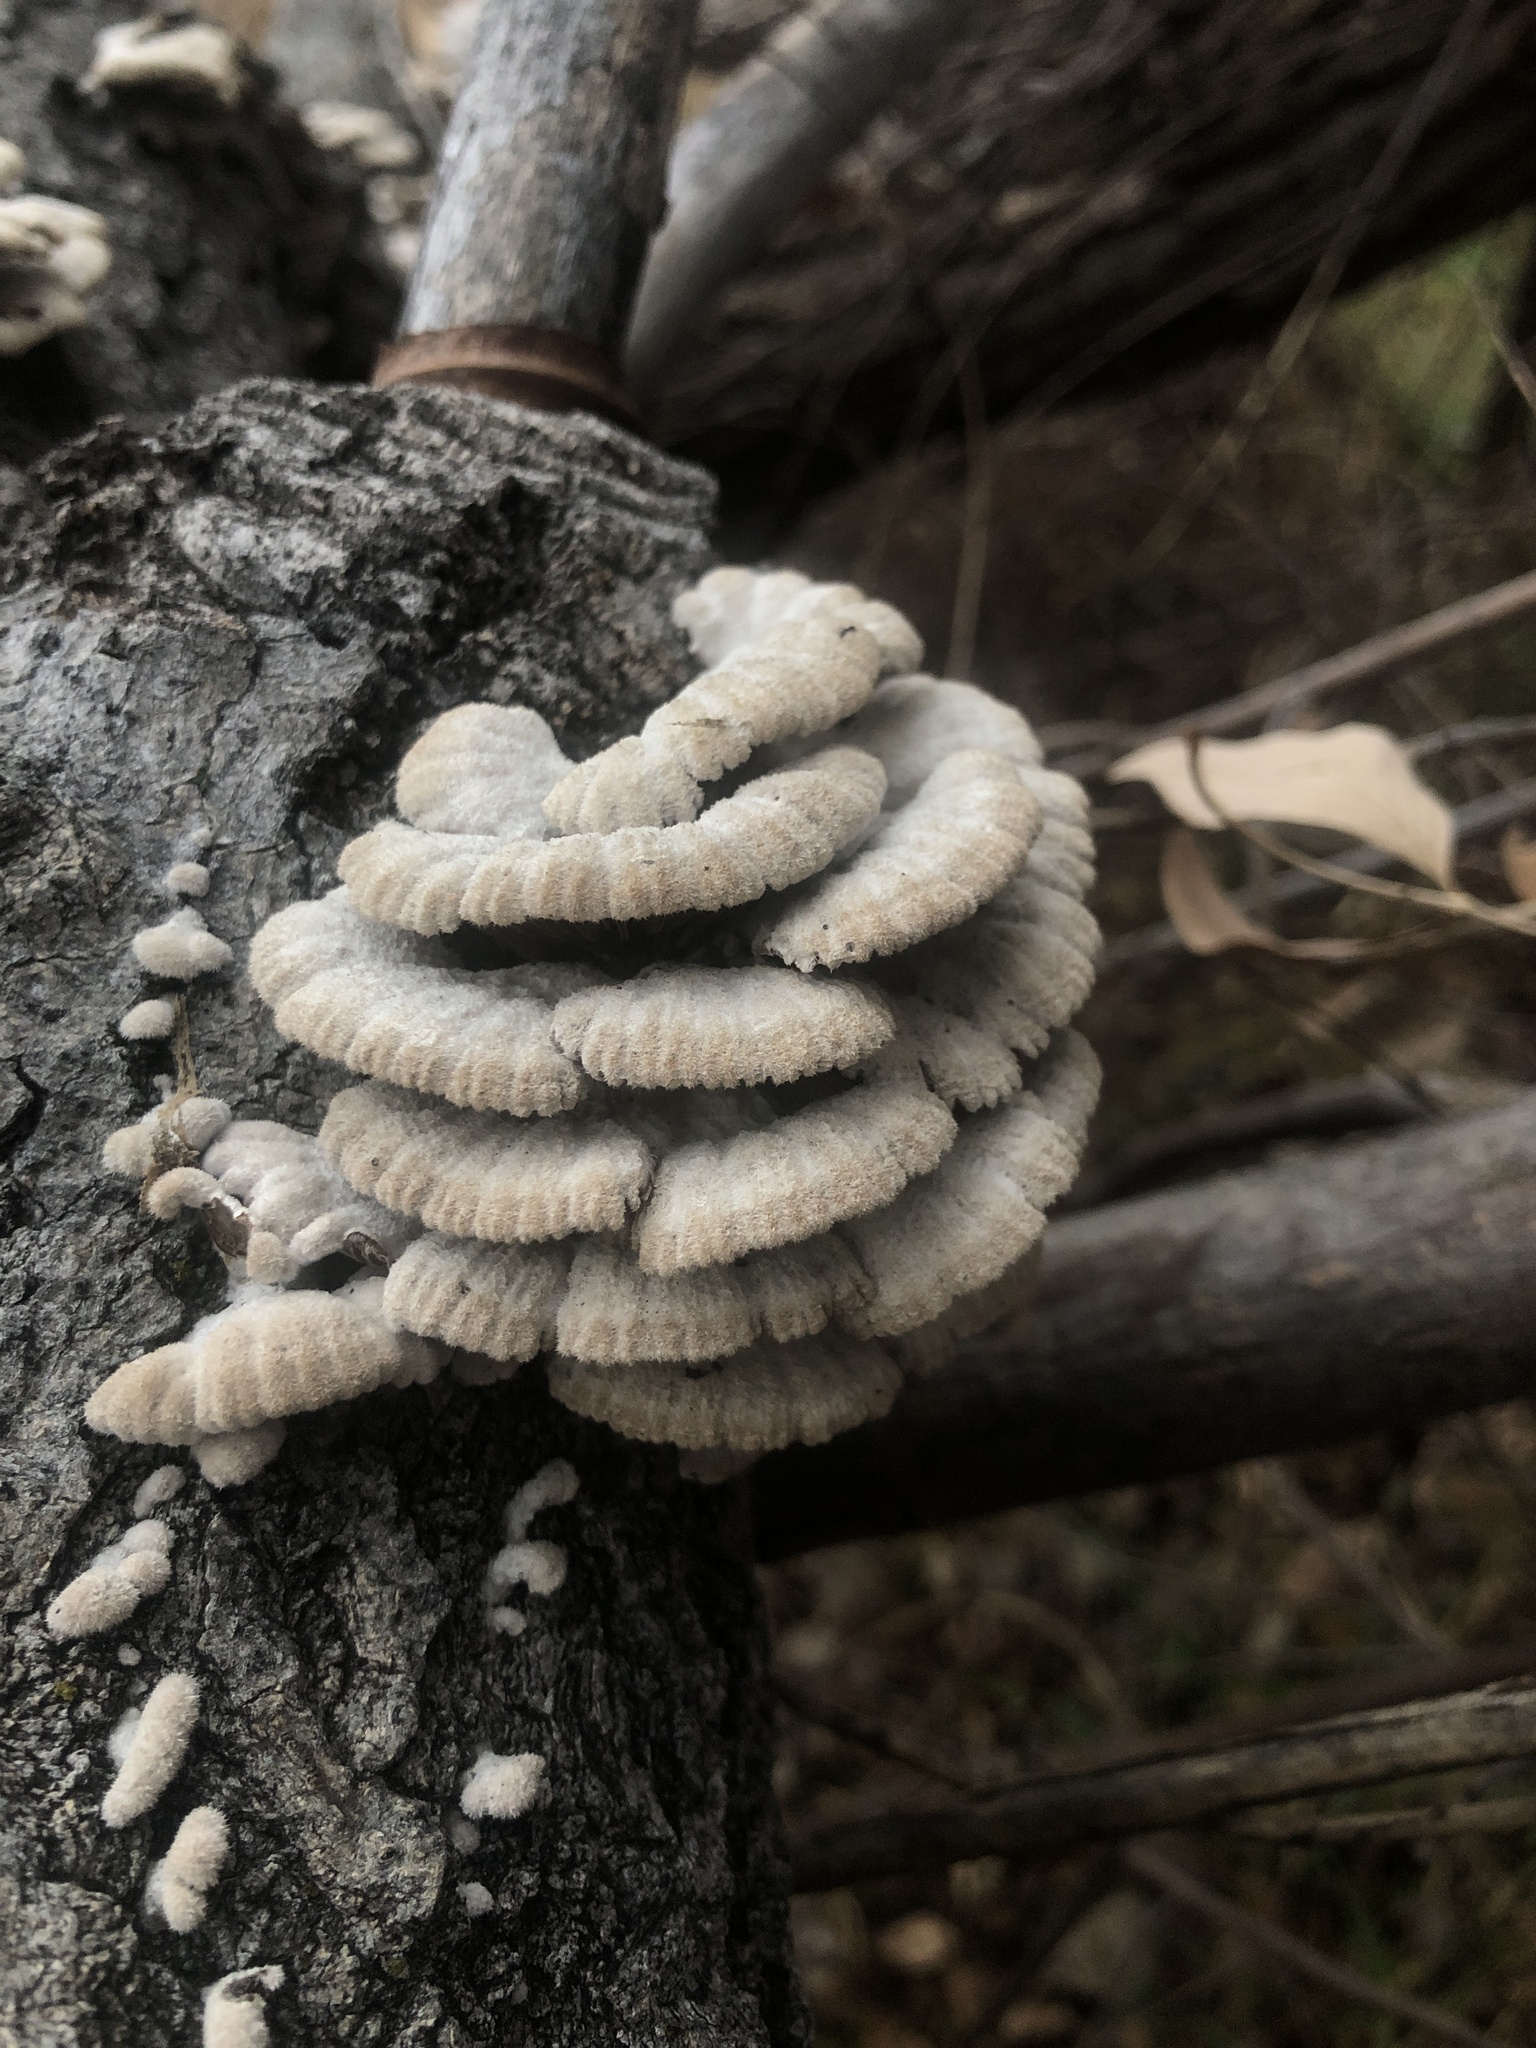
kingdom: Fungi
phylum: Basidiomycota
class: Agaricomycetes
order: Agaricales
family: Schizophyllaceae
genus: Schizophyllum
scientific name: Schizophyllum commune
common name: Common porecrust
